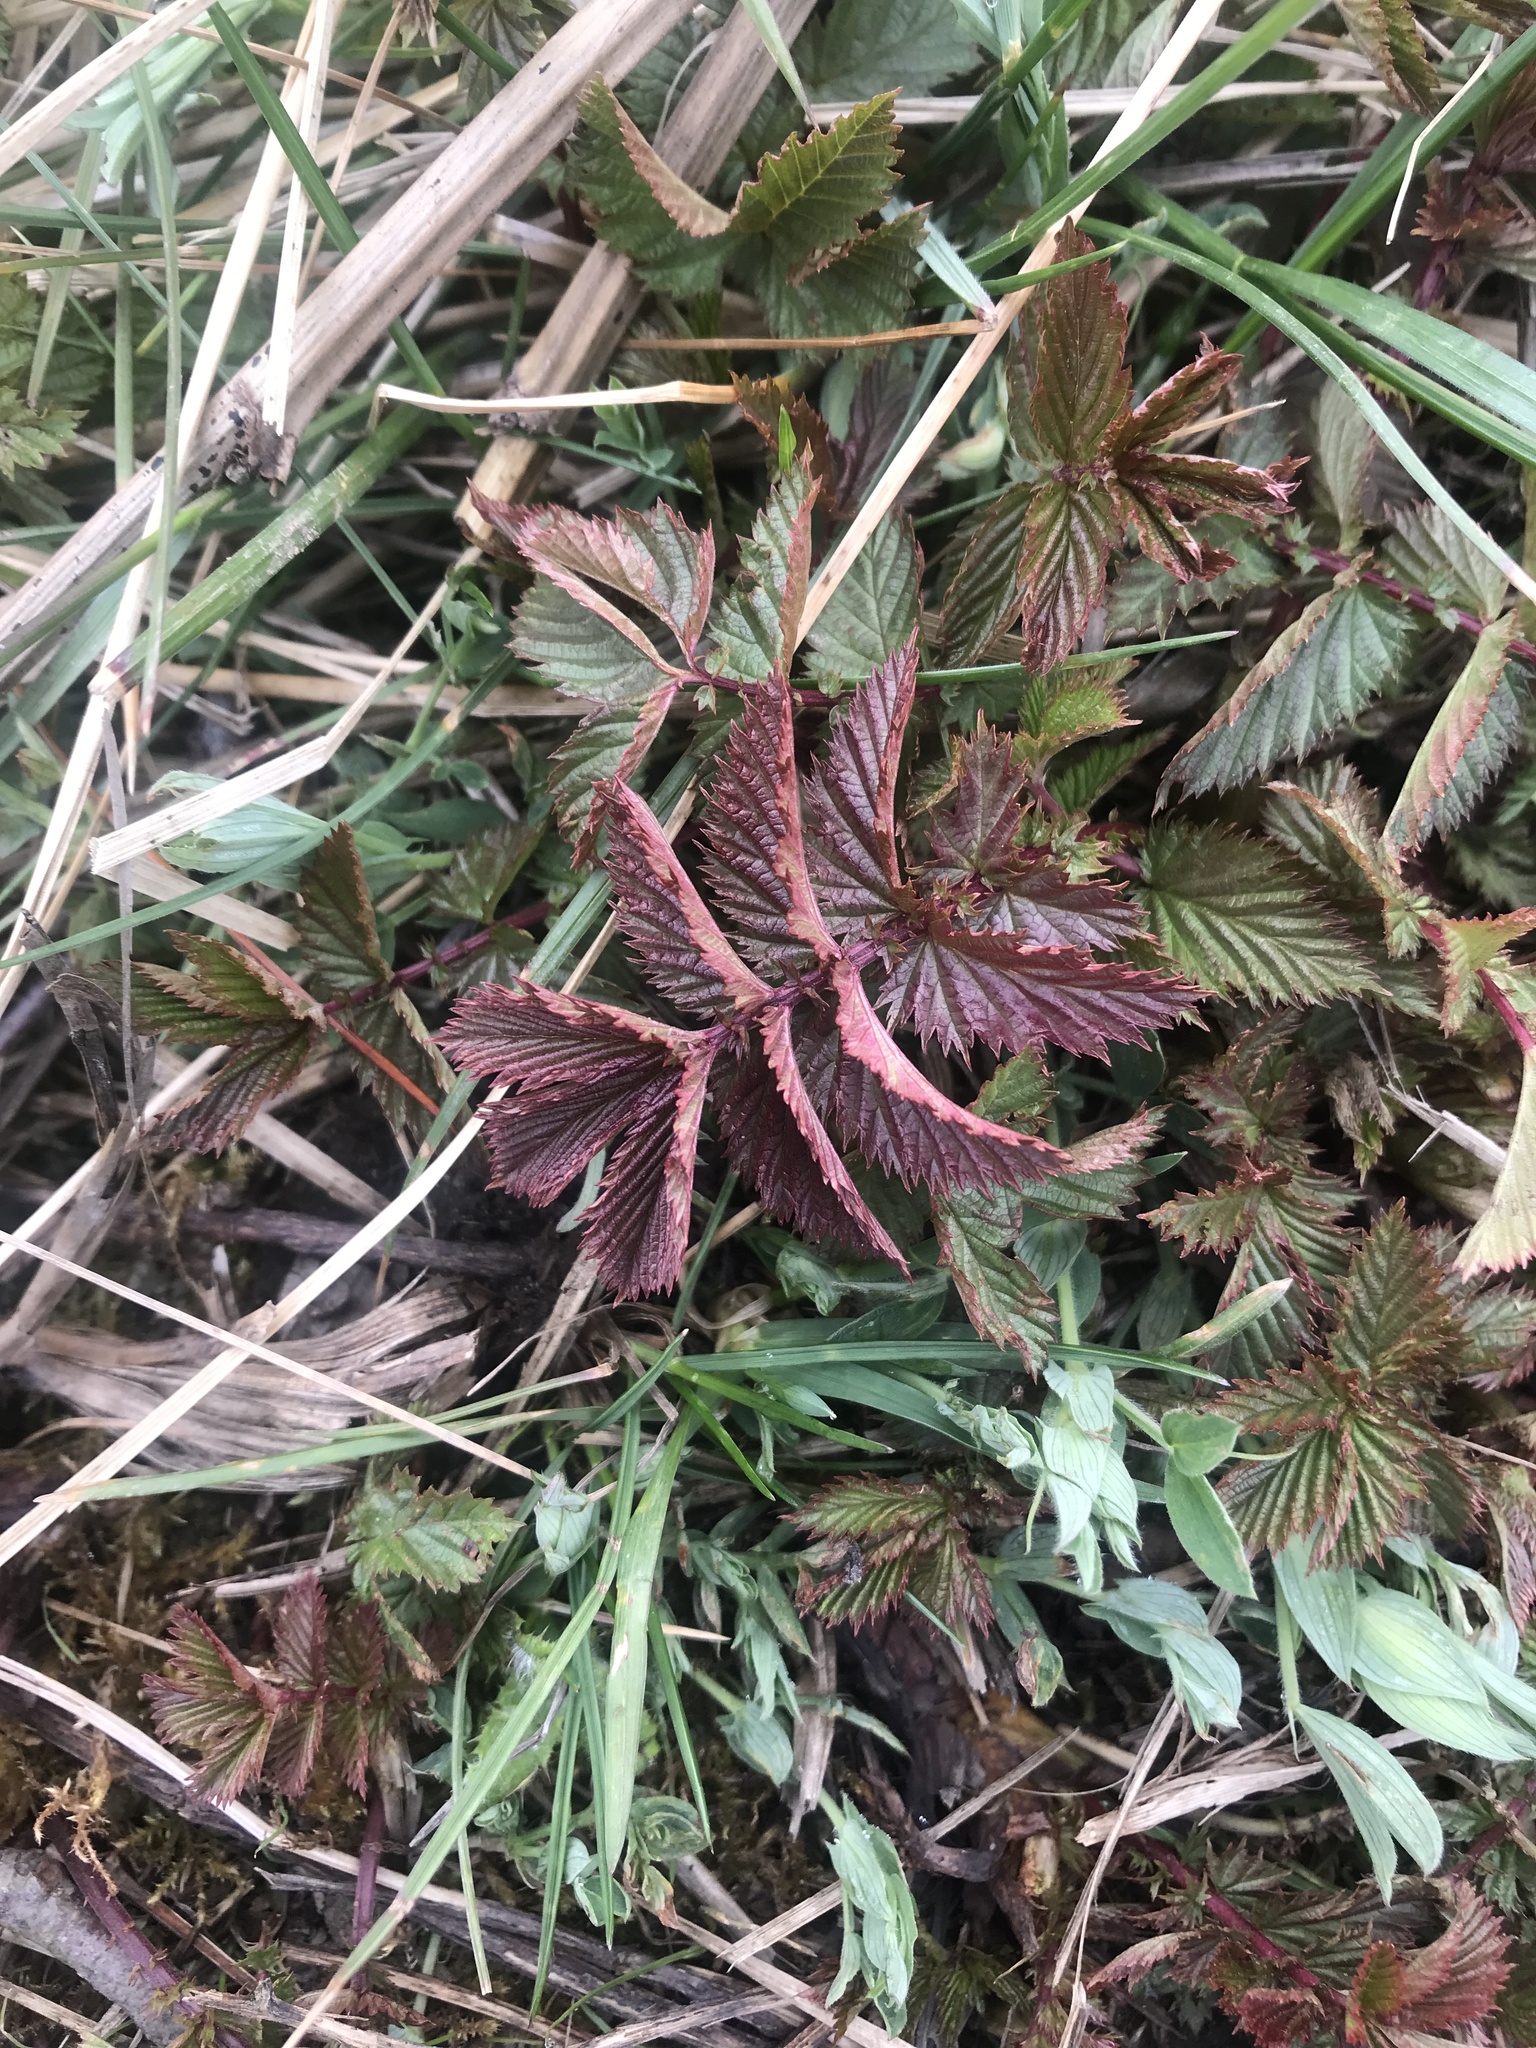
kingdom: Plantae
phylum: Tracheophyta
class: Magnoliopsida
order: Rosales
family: Rosaceae
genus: Filipendula
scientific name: Filipendula ulmaria
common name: Meadowsweet
